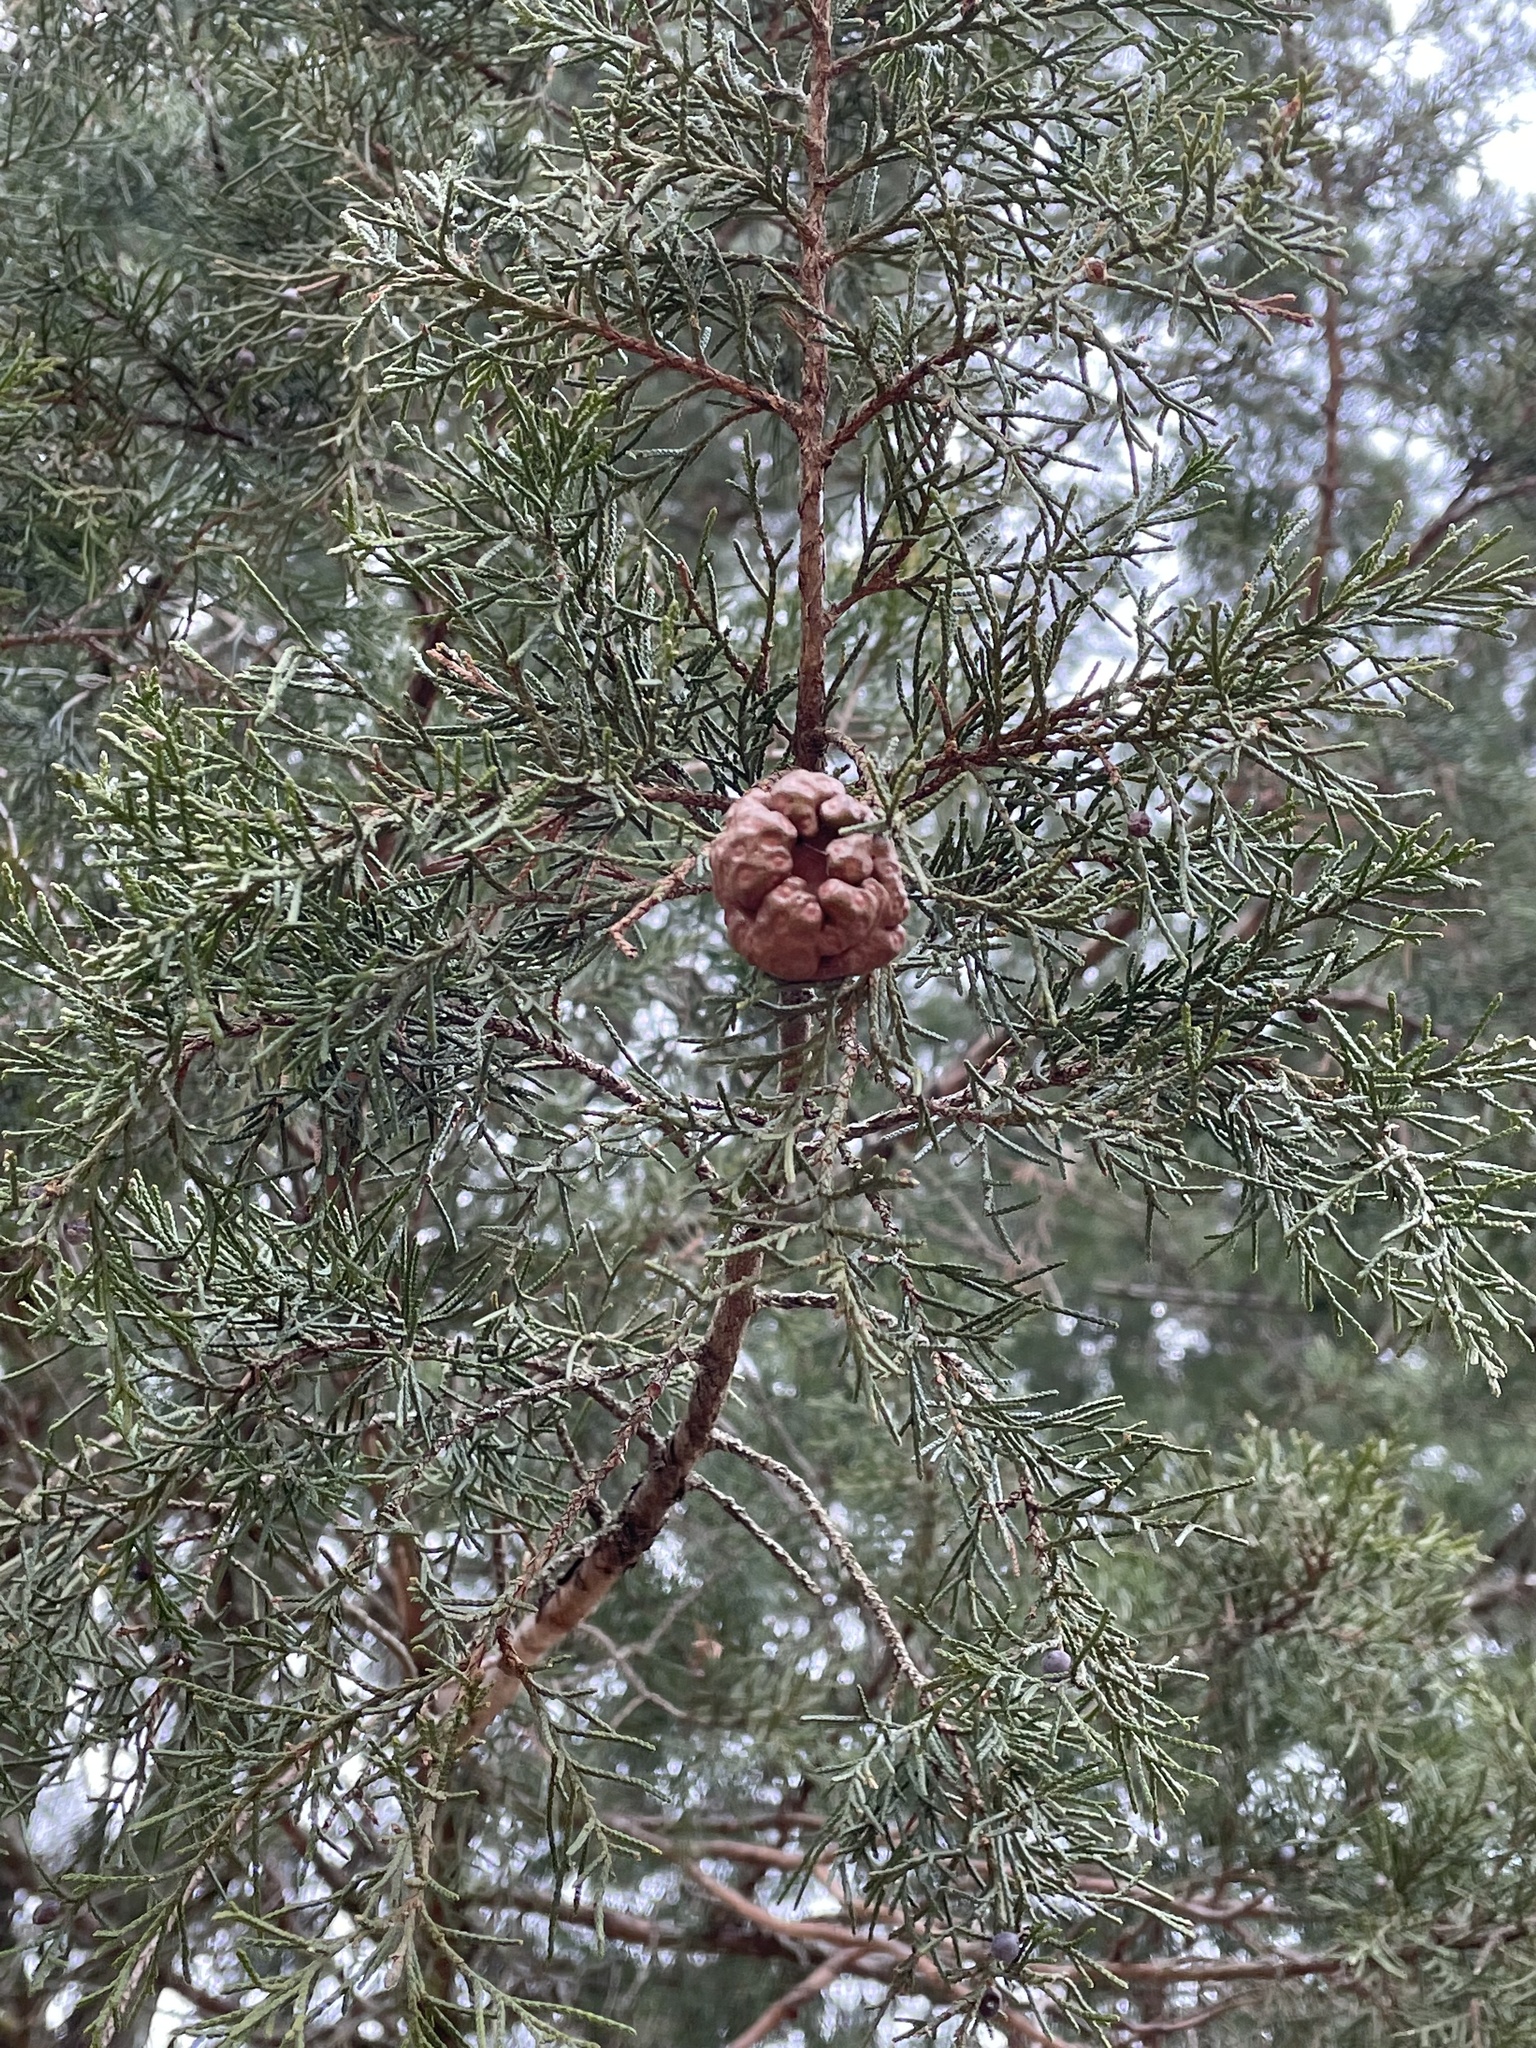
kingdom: Fungi
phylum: Basidiomycota
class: Pucciniomycetes
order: Pucciniales
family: Gymnosporangiaceae
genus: Gymnosporangium
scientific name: Gymnosporangium juniperi-virginianae
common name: Juniper-apple rust
